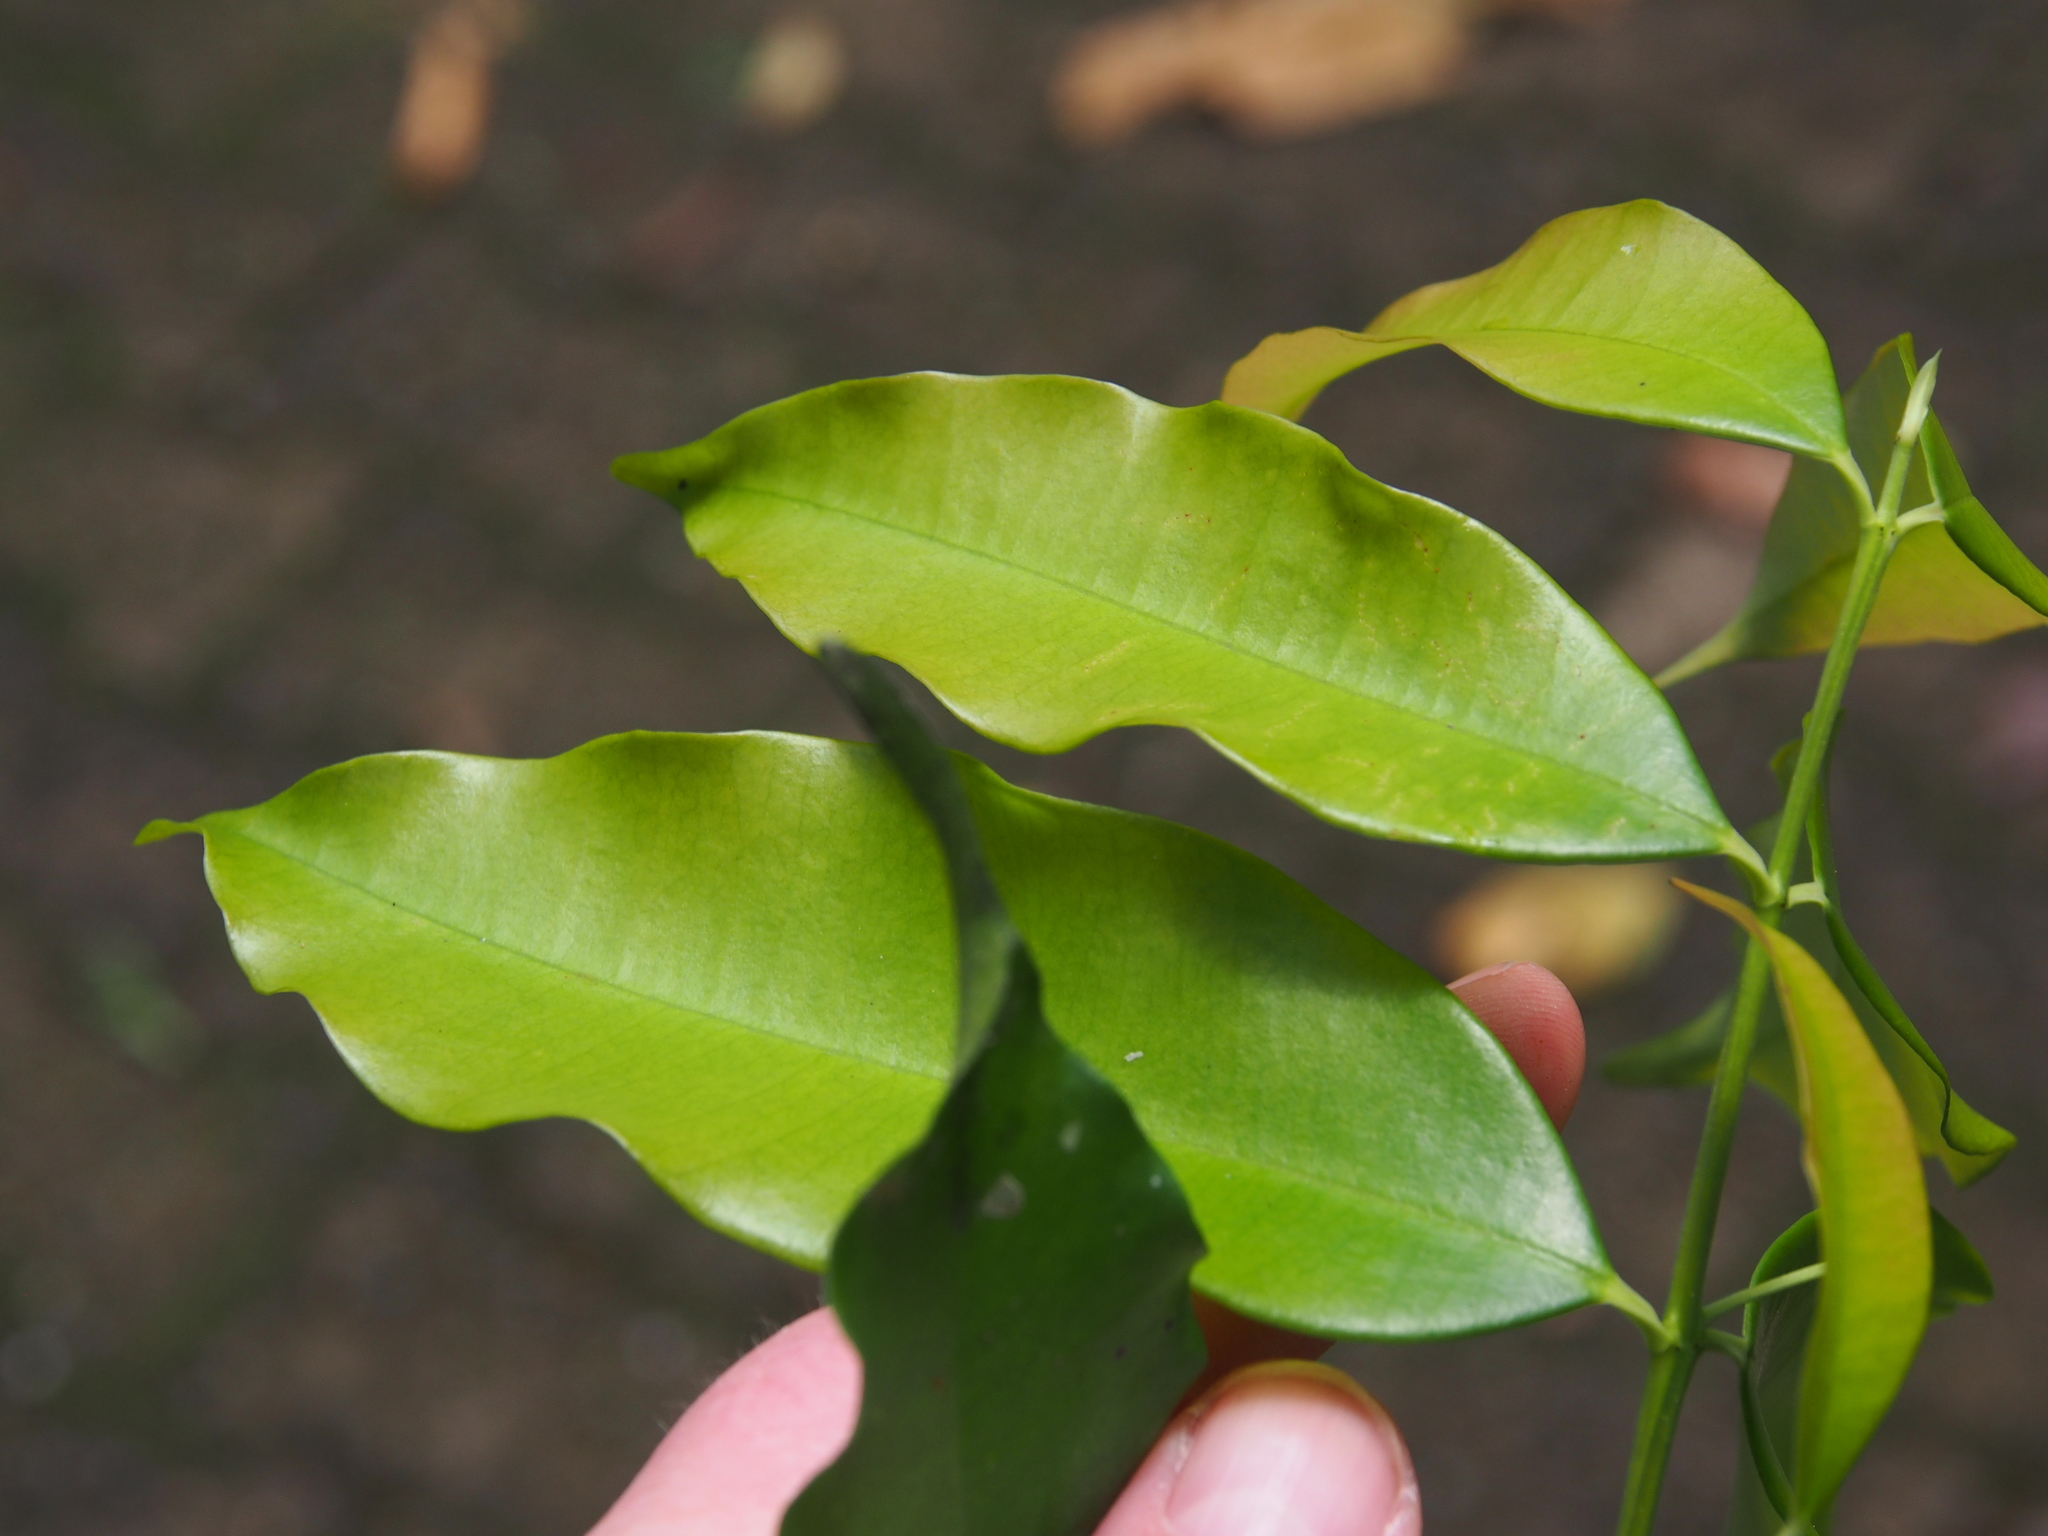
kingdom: Plantae
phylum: Tracheophyta
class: Magnoliopsida
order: Malpighiales
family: Clusiaceae
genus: Symphonia
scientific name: Symphonia globulifera
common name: Boarwood
